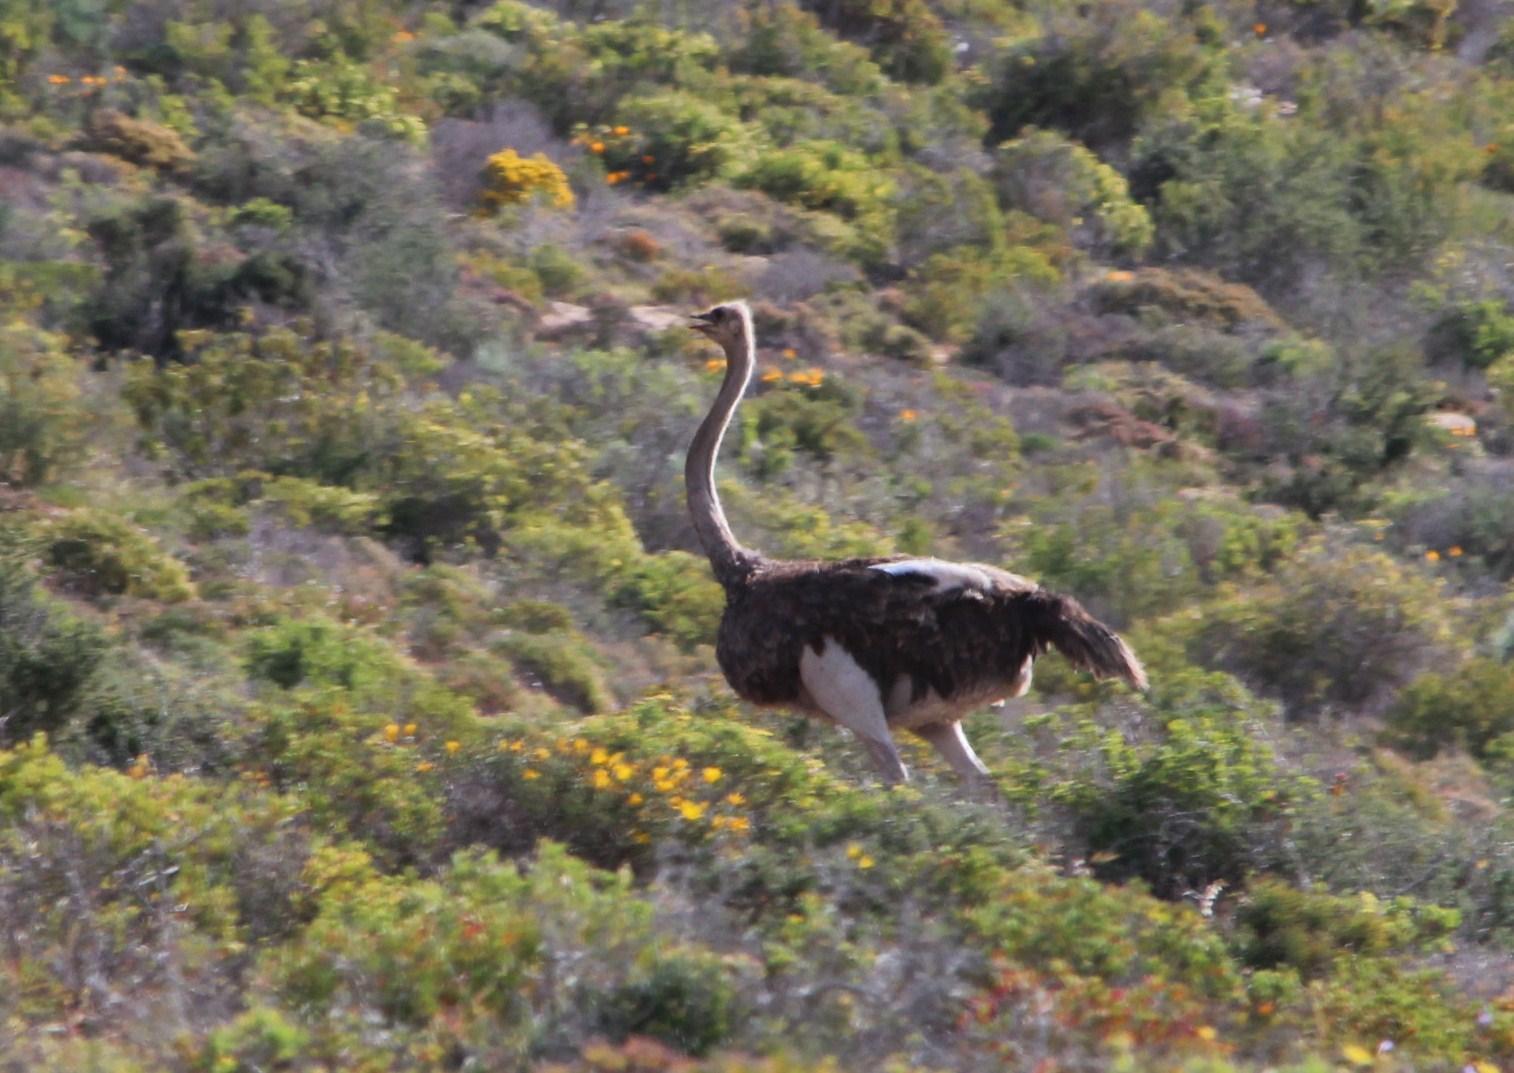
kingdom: Animalia
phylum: Chordata
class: Aves
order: Struthioniformes
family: Struthionidae
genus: Struthio
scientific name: Struthio camelus
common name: Common ostrich
